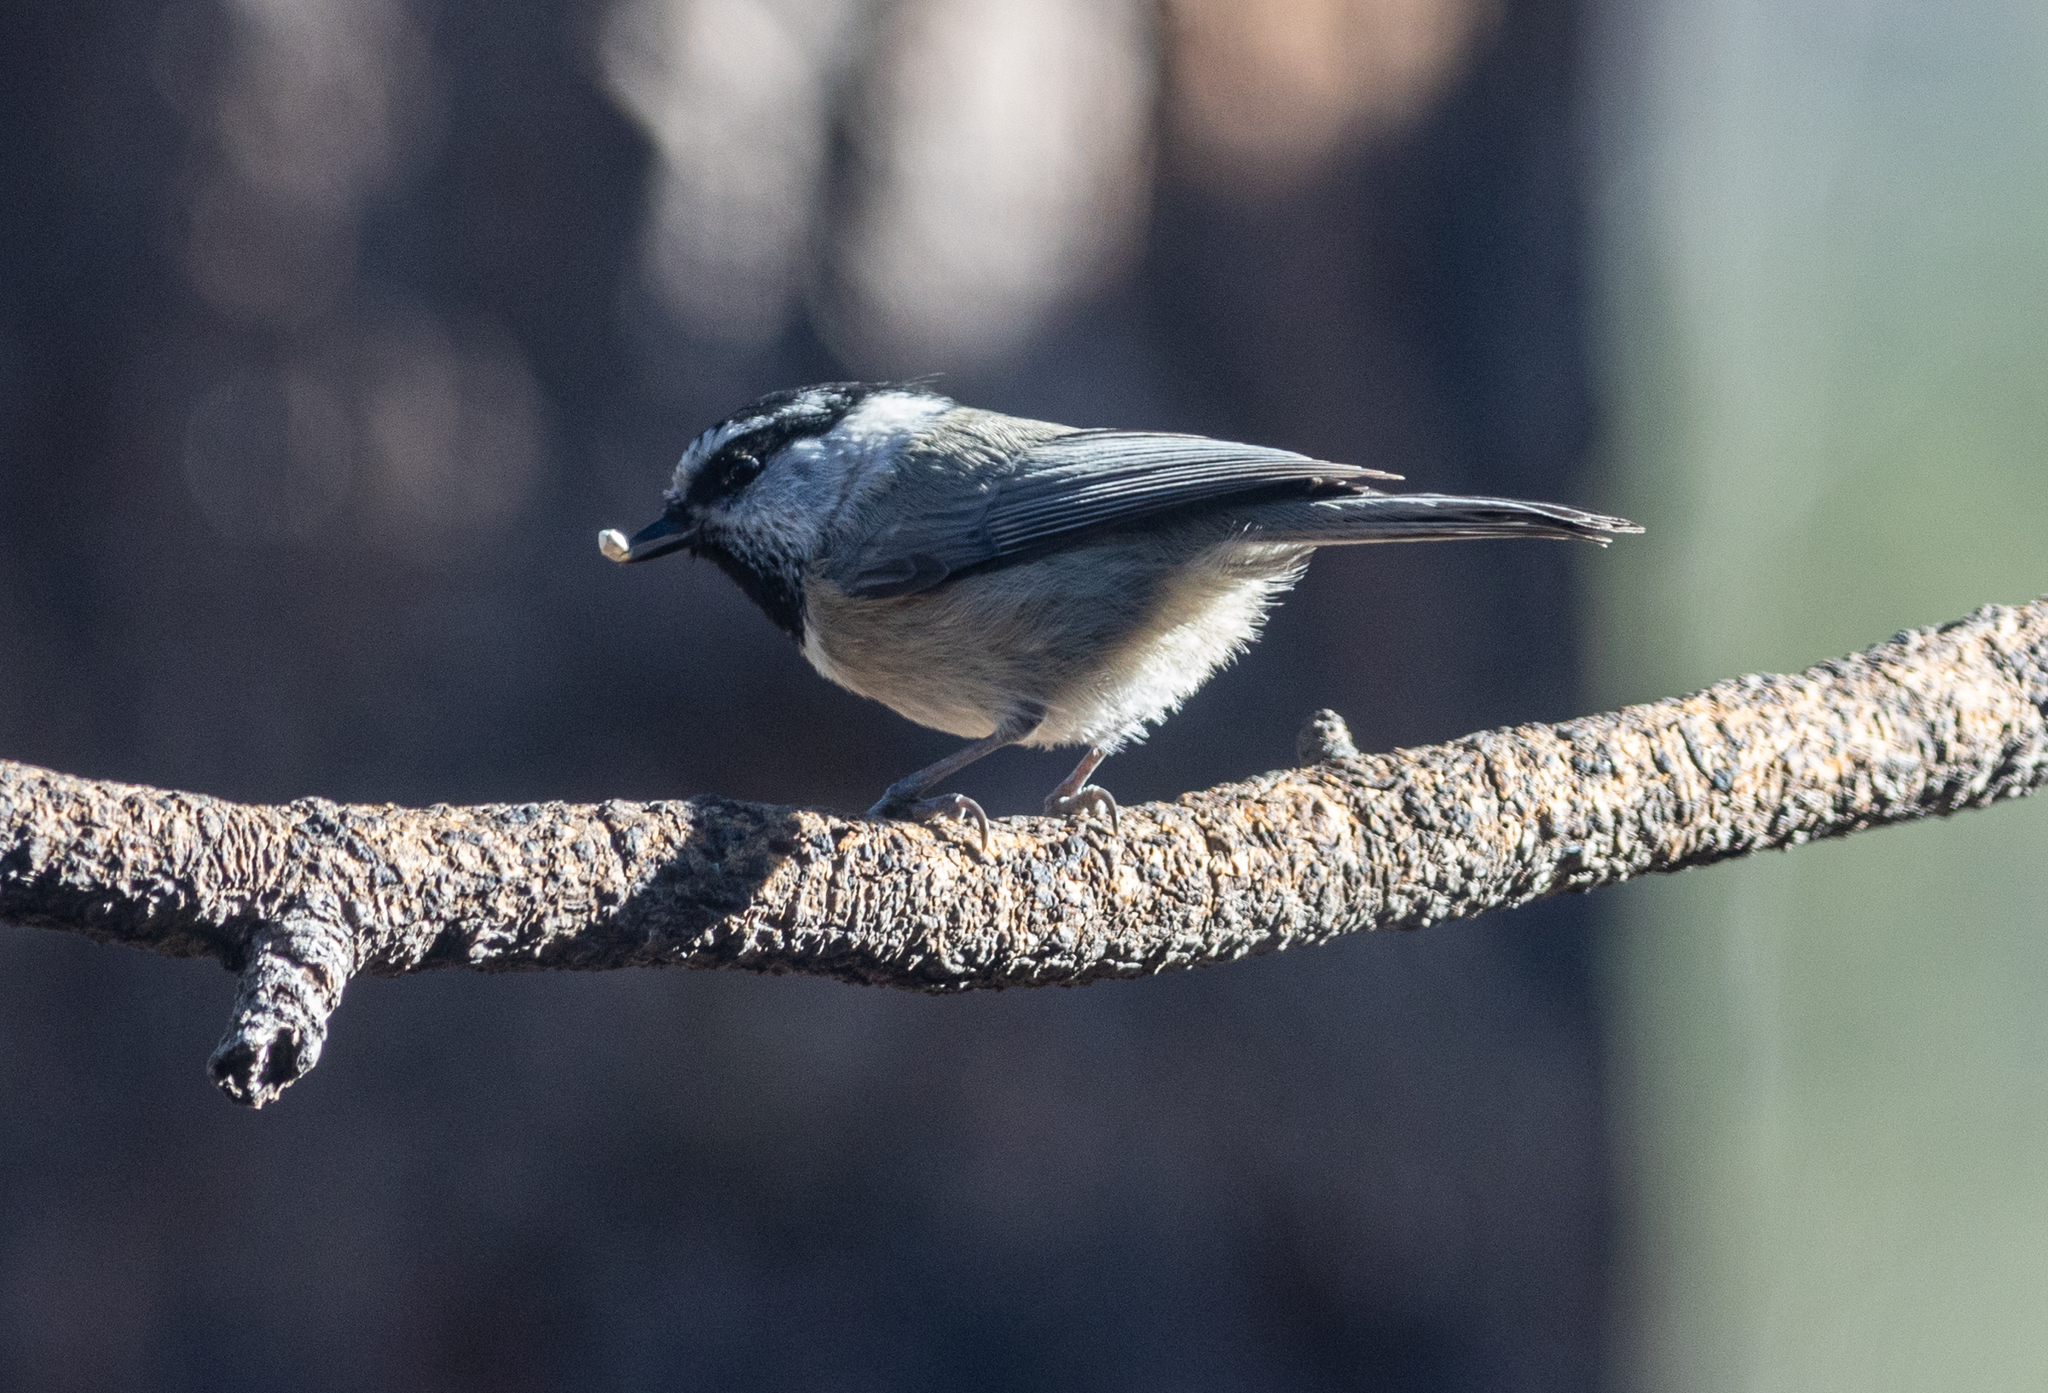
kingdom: Animalia
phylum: Chordata
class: Aves
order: Passeriformes
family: Paridae
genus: Poecile
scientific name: Poecile gambeli
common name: Mountain chickadee
